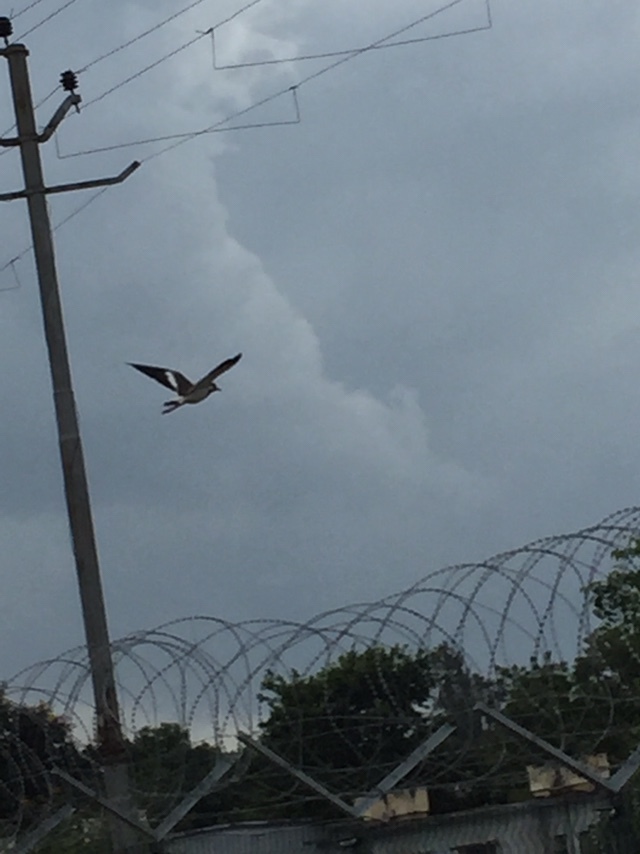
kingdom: Animalia
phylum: Chordata
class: Aves
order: Charadriiformes
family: Charadriidae
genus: Vanellus
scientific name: Vanellus indicus
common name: Red-wattled lapwing
